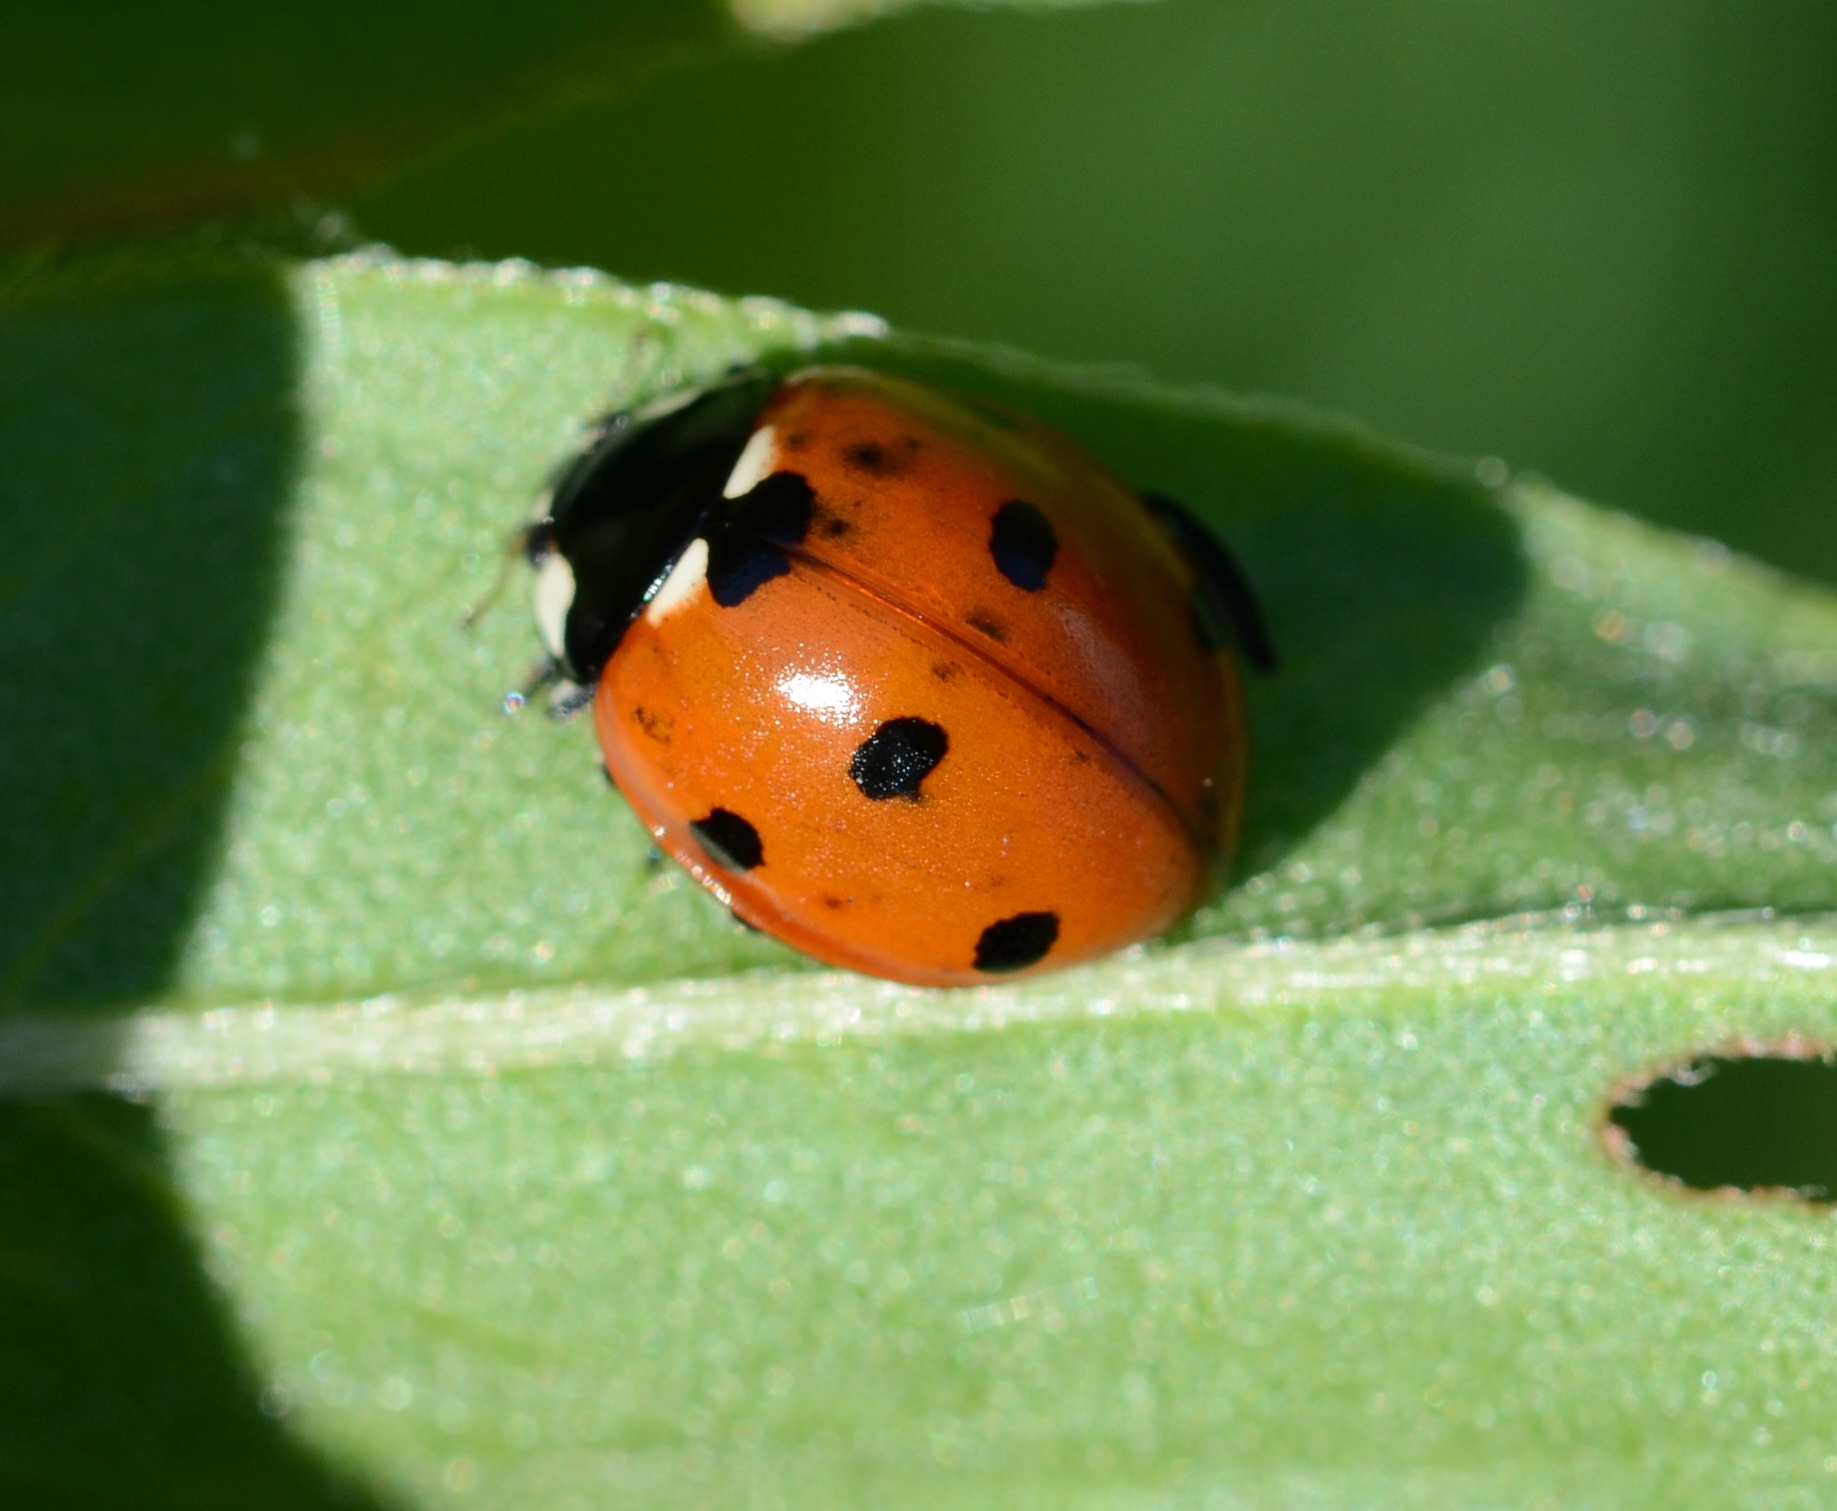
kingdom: Animalia
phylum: Arthropoda
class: Insecta
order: Coleoptera
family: Coccinellidae
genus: Coccinella
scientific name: Coccinella septempunctata
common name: Sevenspotted lady beetle
